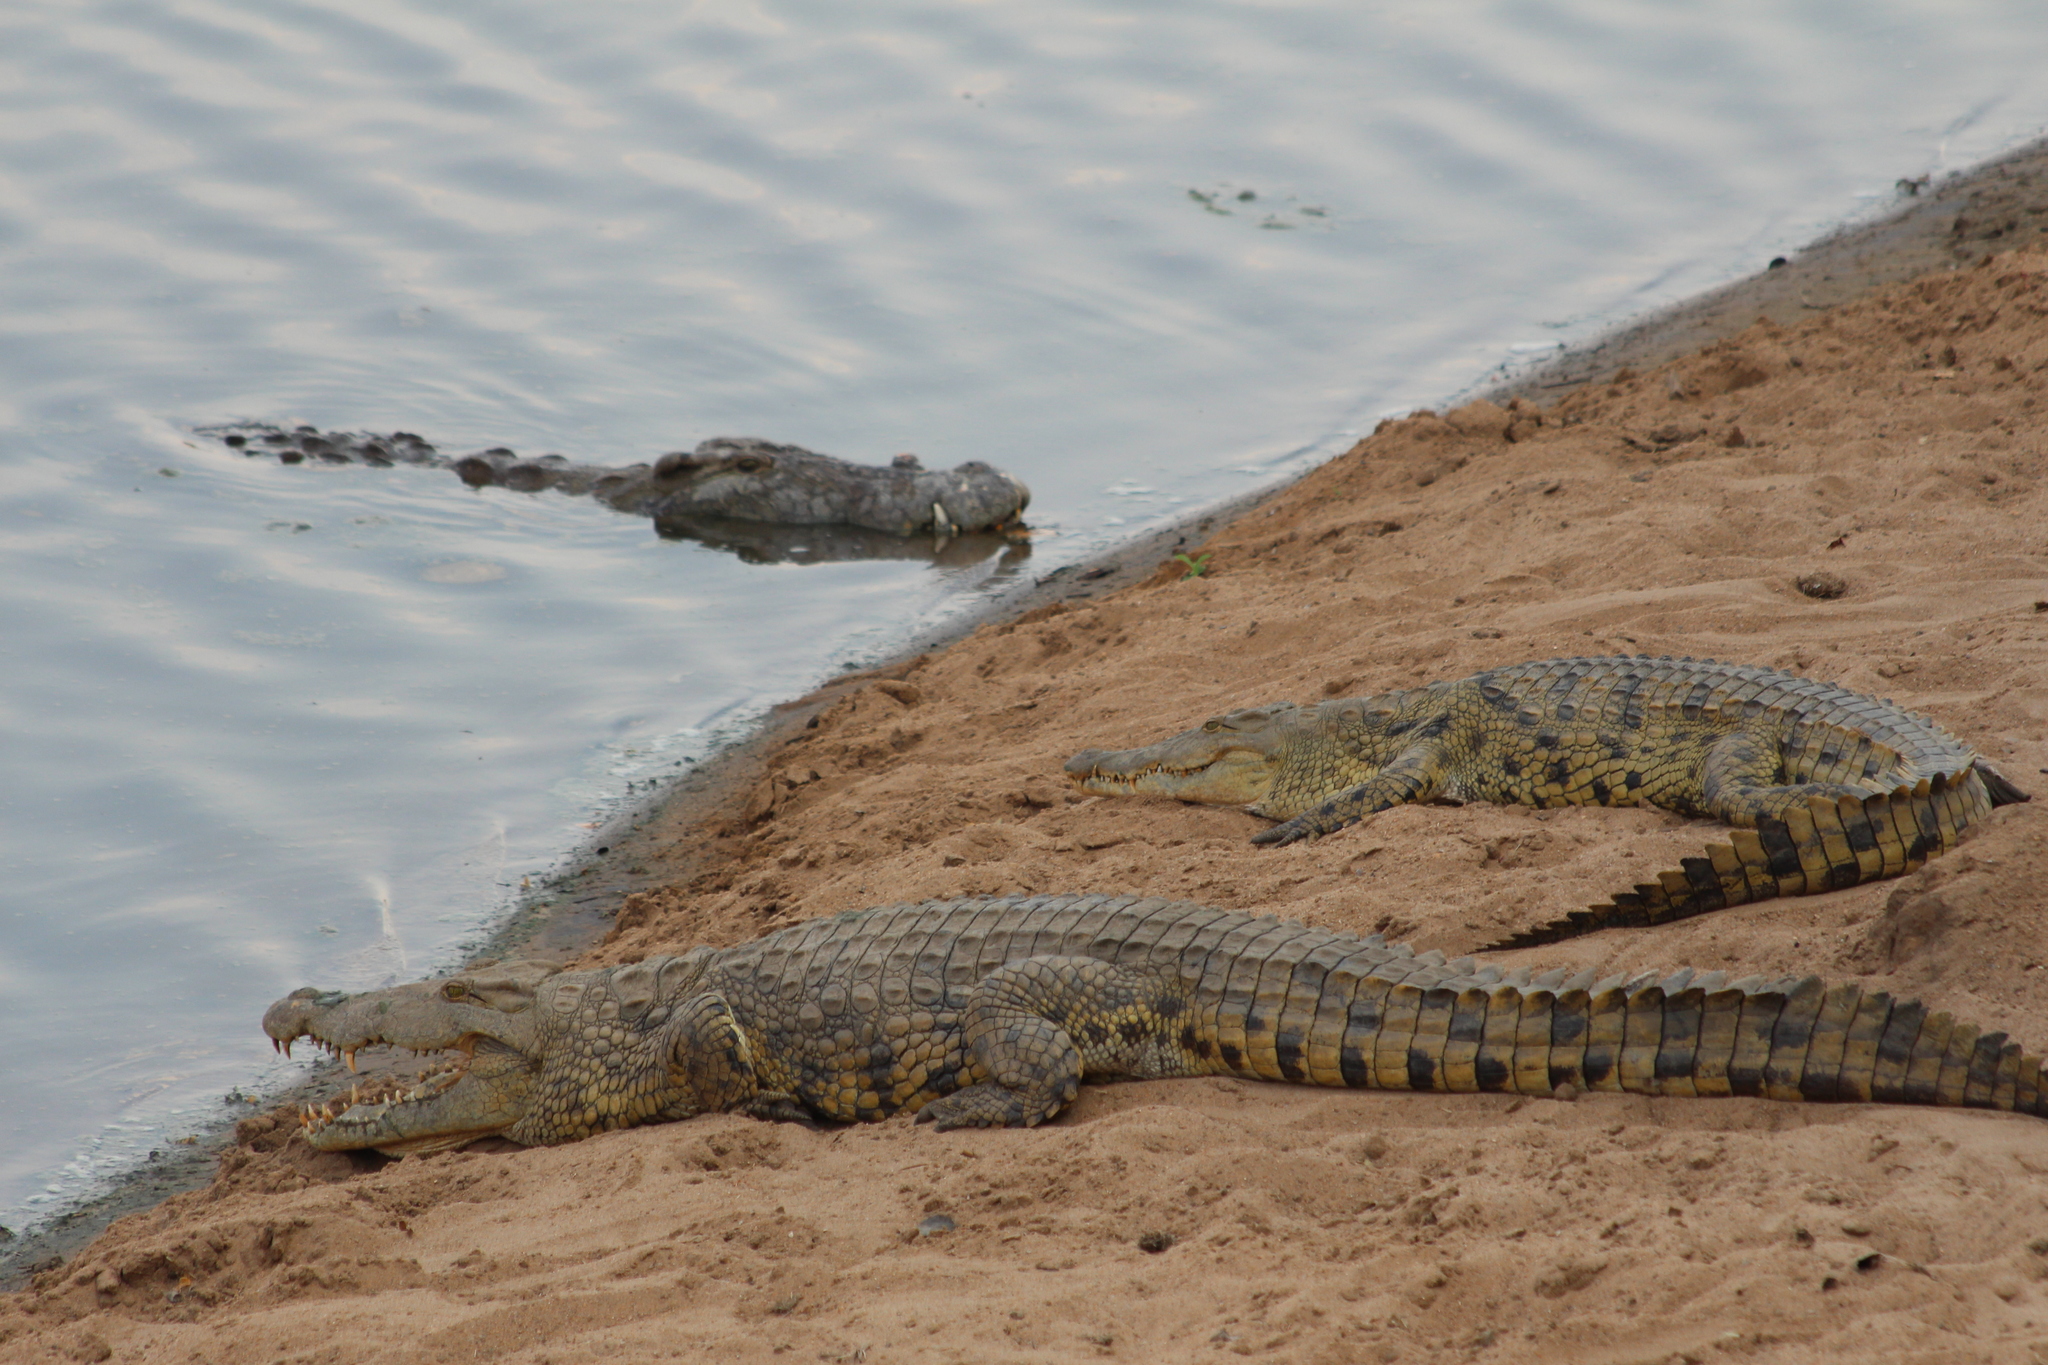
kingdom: Animalia
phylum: Chordata
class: Crocodylia
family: Crocodylidae
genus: Crocodylus
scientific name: Crocodylus niloticus
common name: Nile crocodile
